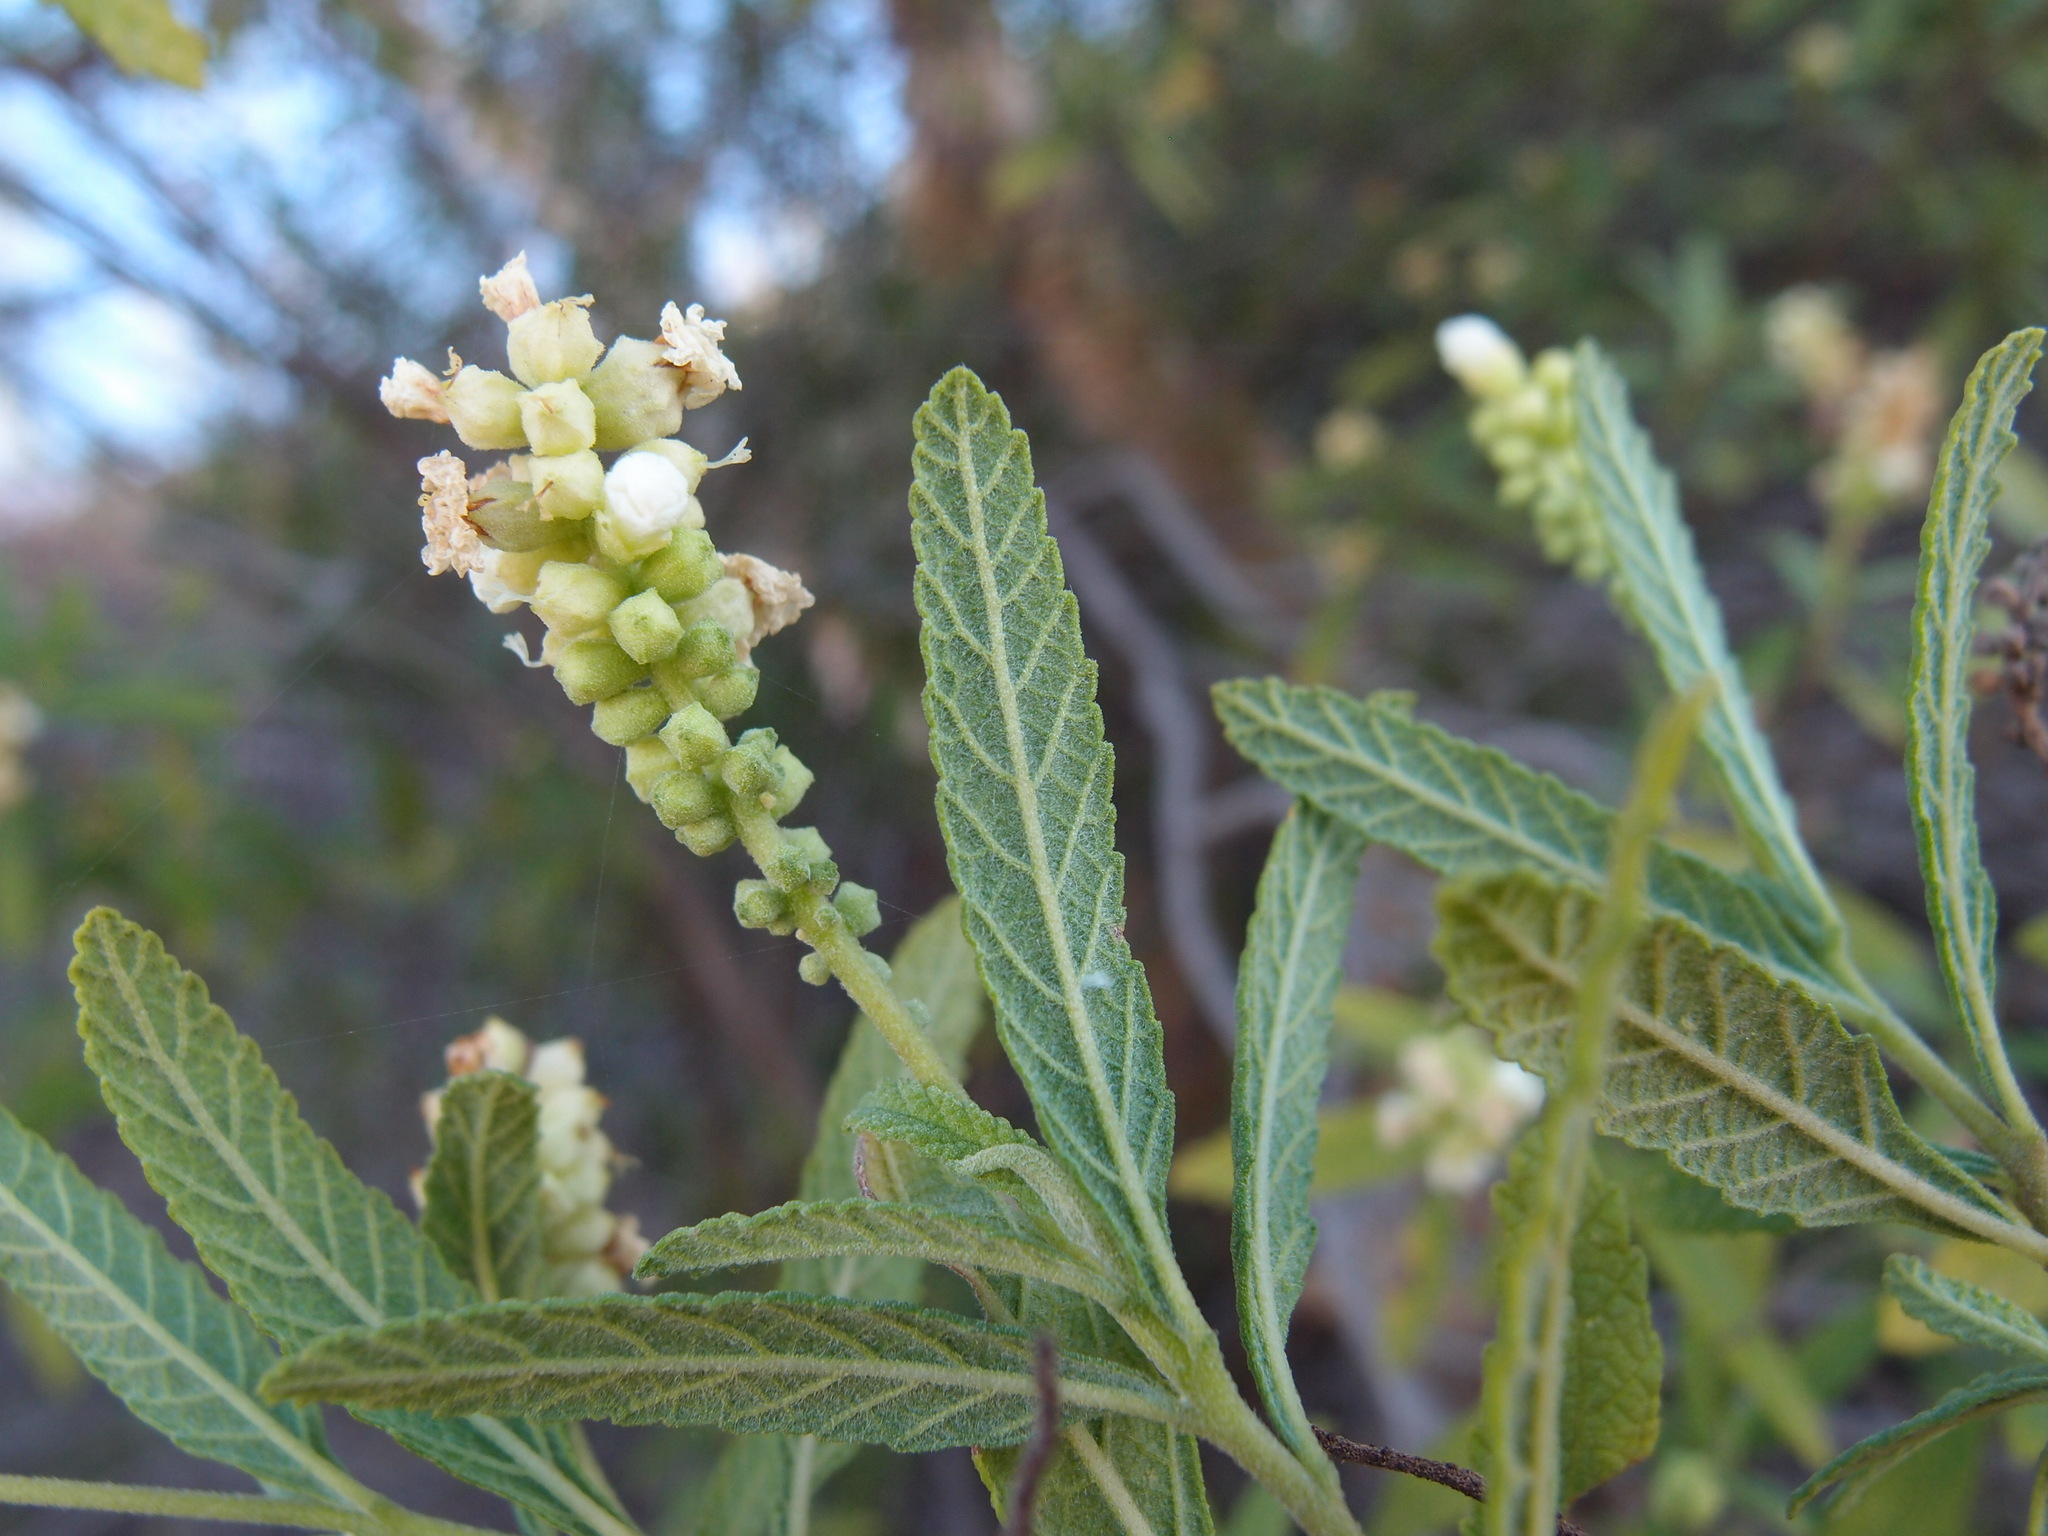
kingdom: Plantae
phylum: Tracheophyta
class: Magnoliopsida
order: Boraginales
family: Cordiaceae
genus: Varronia
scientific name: Varronia curassavica
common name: Black sage
